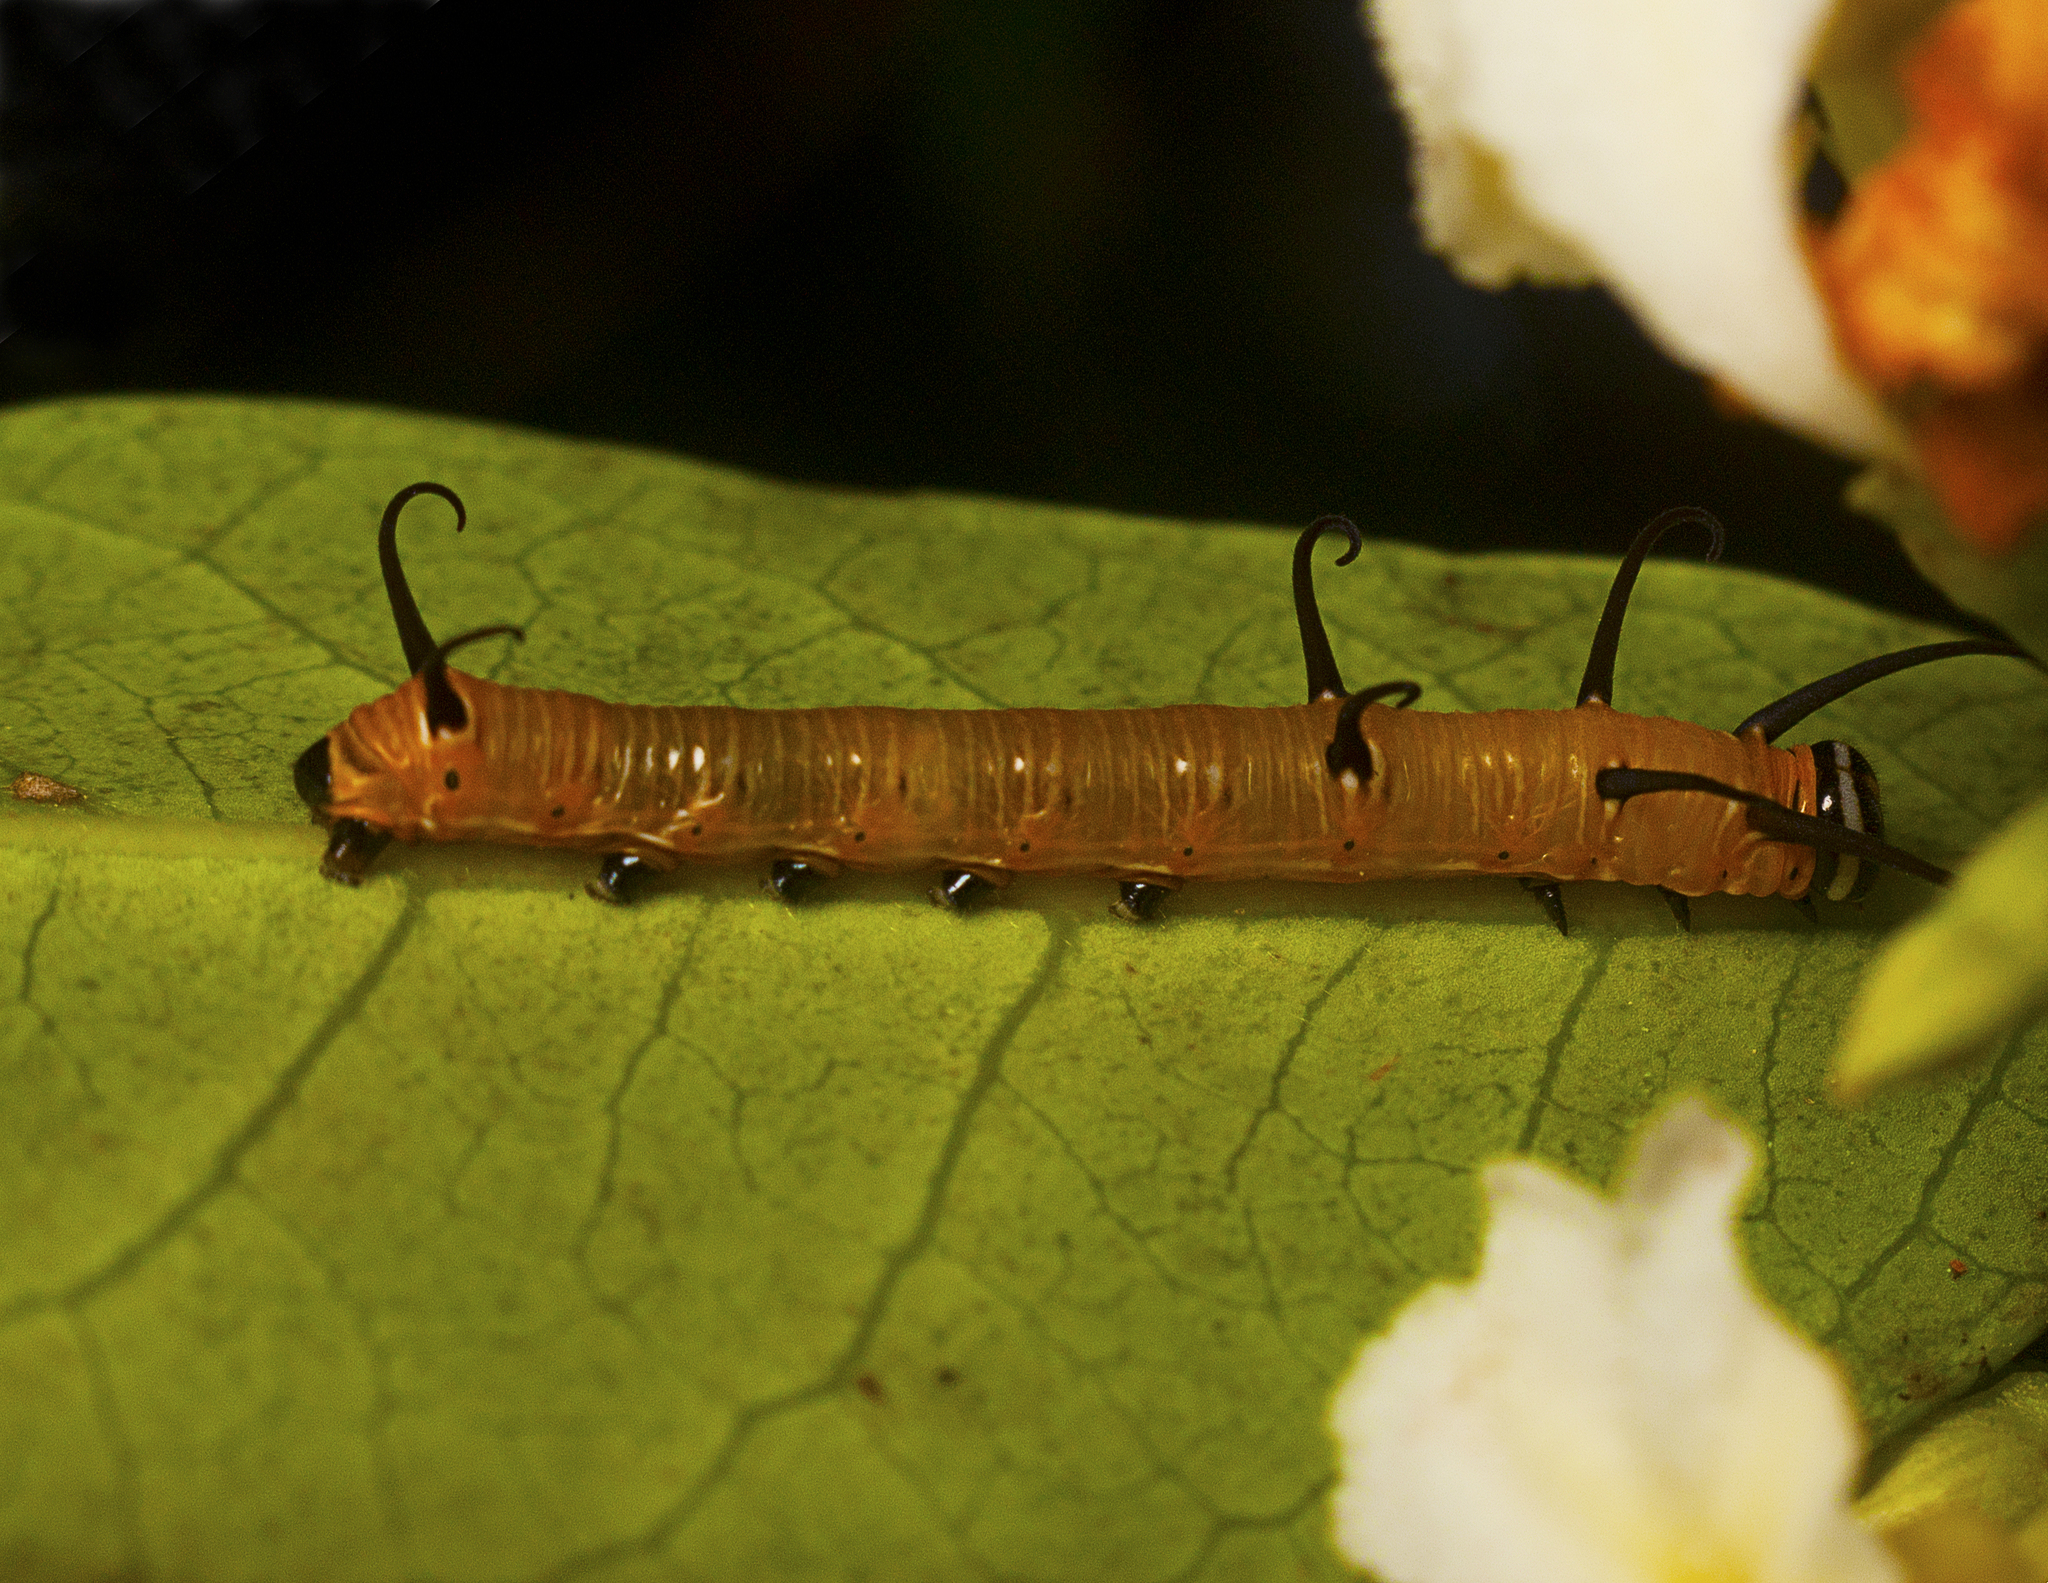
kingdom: Animalia
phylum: Arthropoda
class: Insecta
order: Lepidoptera
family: Nymphalidae
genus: Euploea
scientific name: Euploea core
